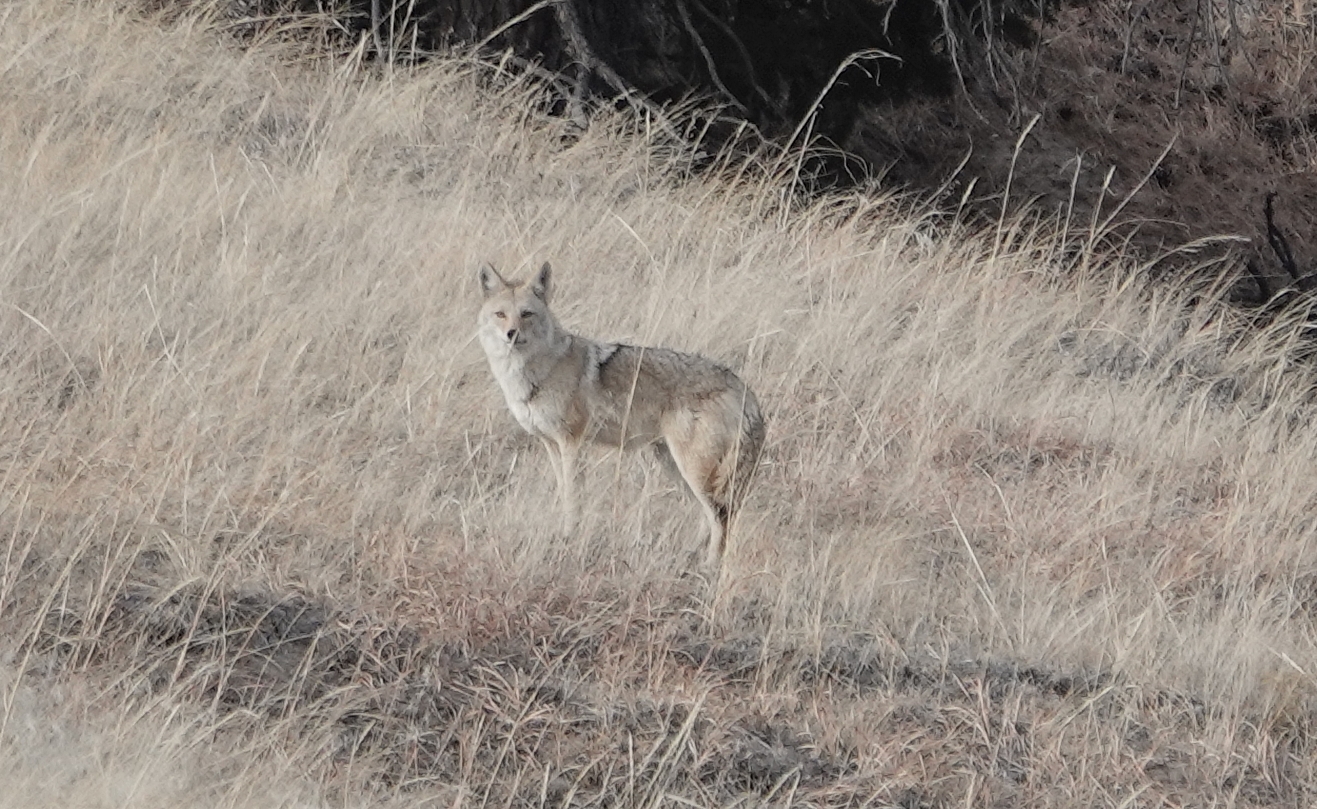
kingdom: Animalia
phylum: Chordata
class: Mammalia
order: Carnivora
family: Canidae
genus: Canis
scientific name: Canis latrans
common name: Coyote
